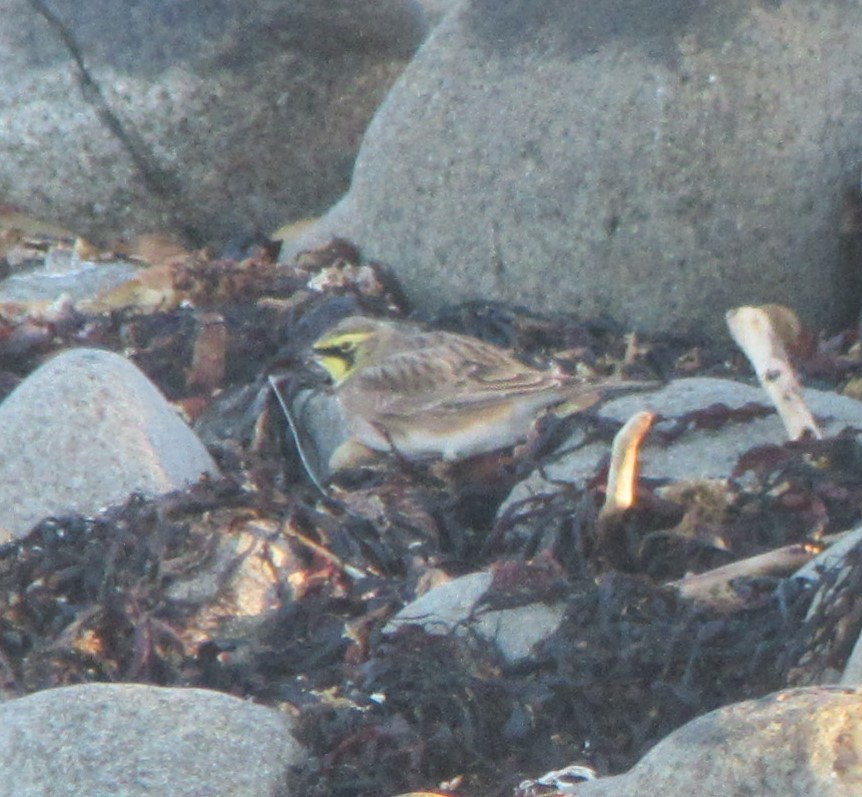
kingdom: Animalia
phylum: Chordata
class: Aves
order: Passeriformes
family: Alaudidae
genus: Eremophila
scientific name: Eremophila alpestris
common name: Horned lark
